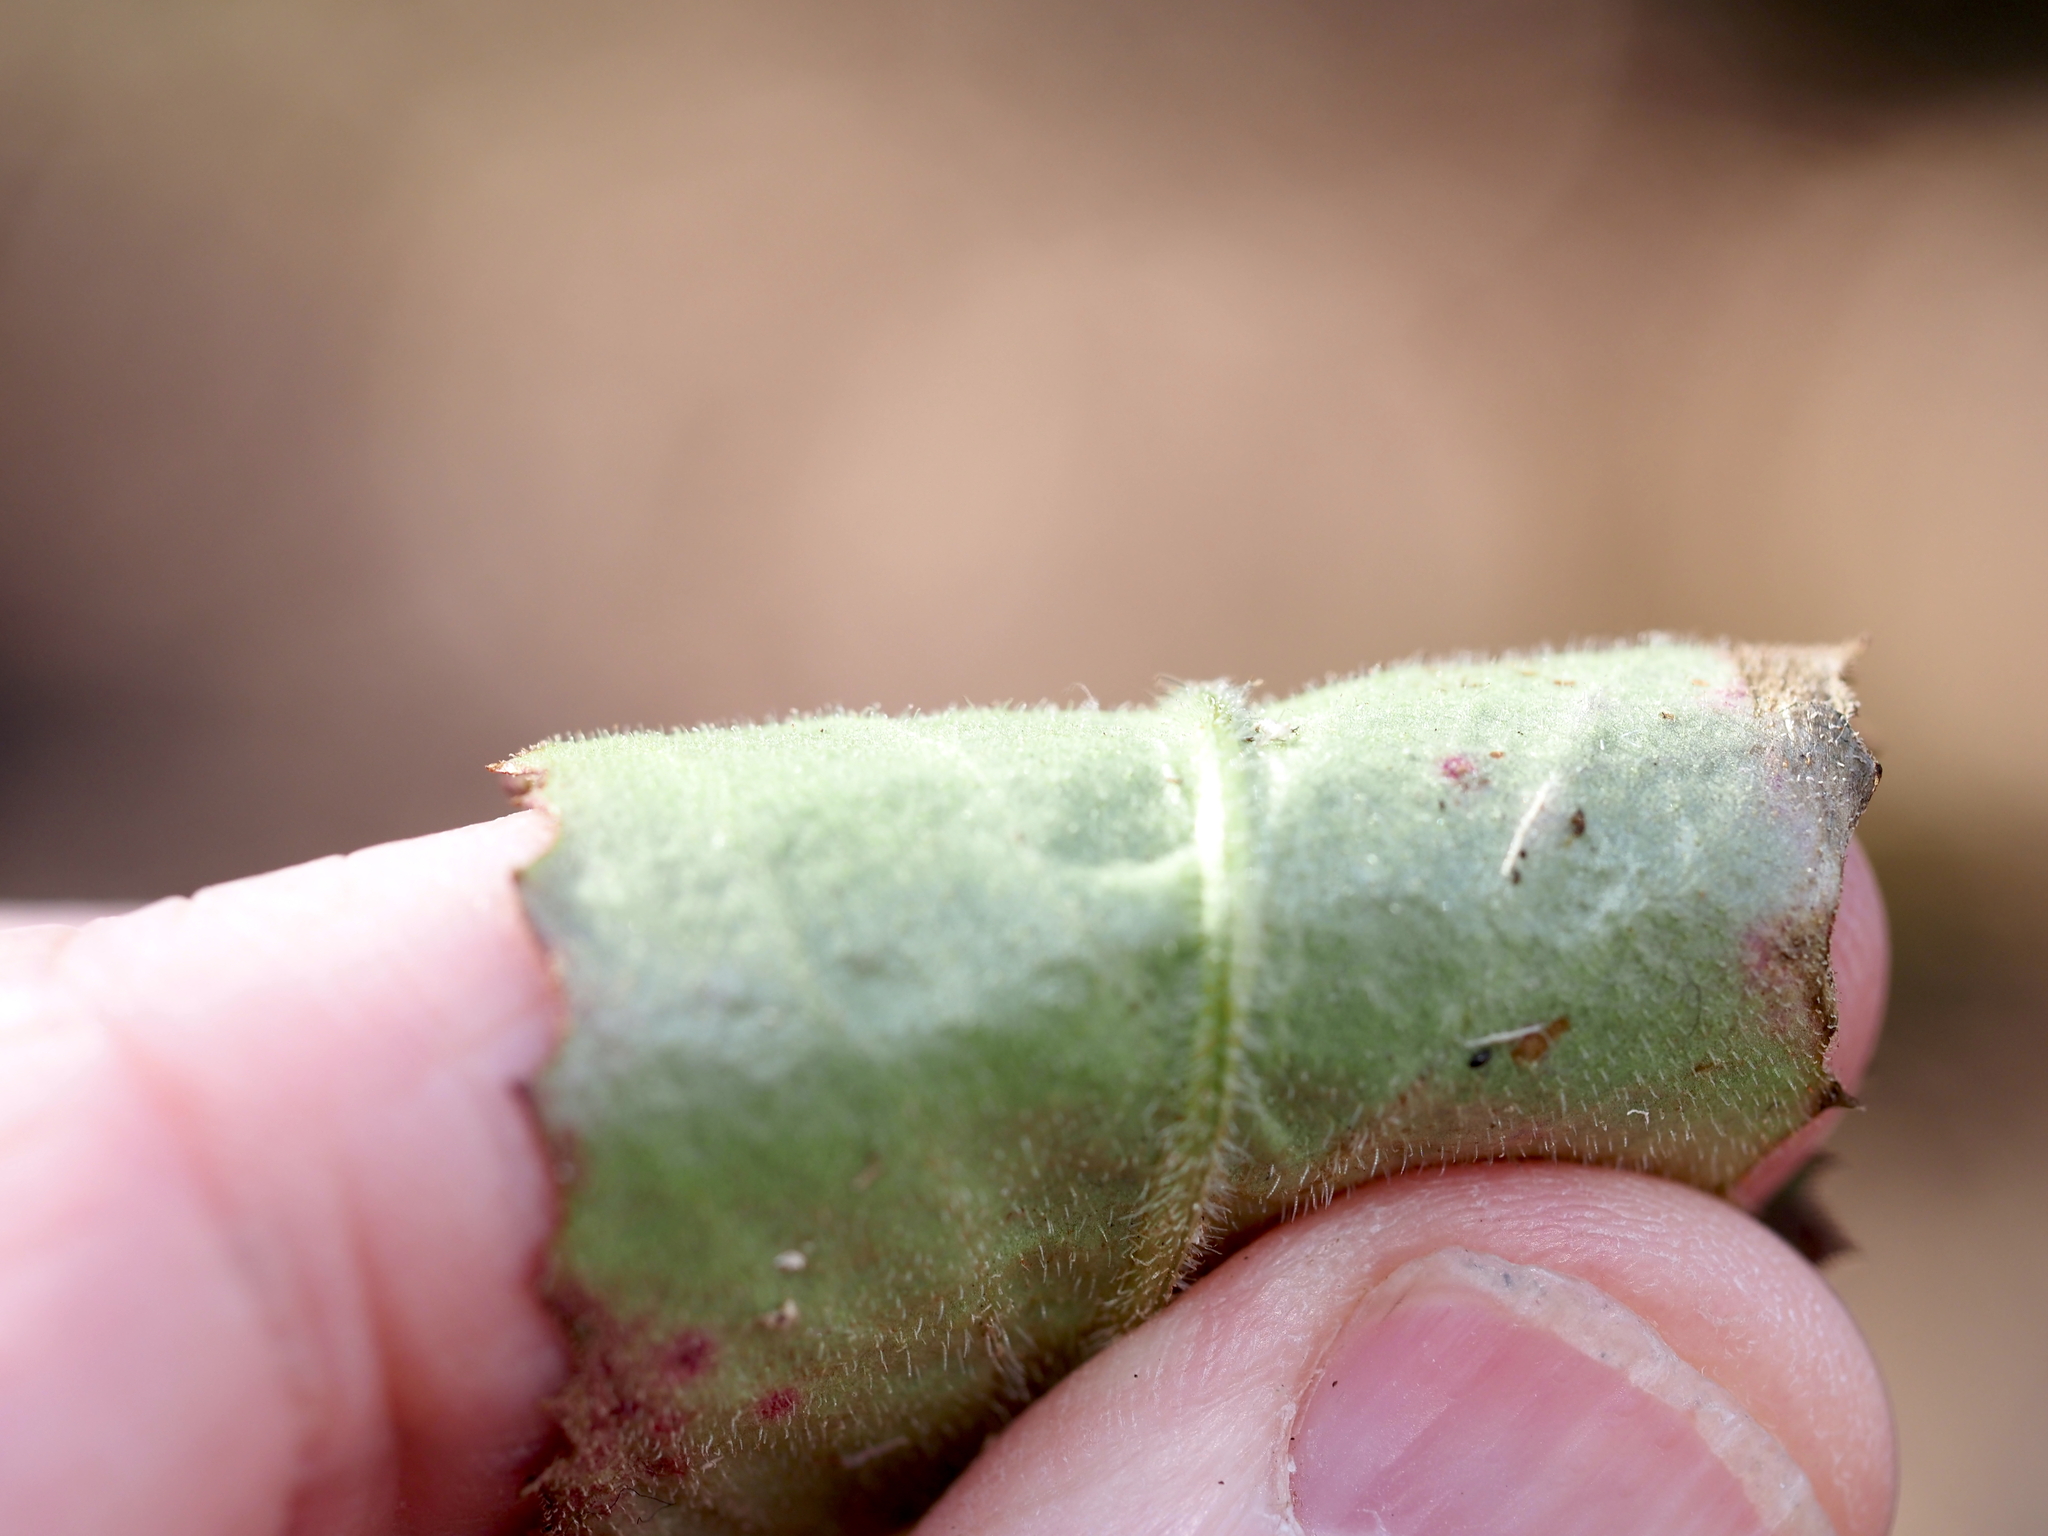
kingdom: Plantae
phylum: Tracheophyta
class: Magnoliopsida
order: Saxifragales
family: Saxifragaceae
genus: Micranthes
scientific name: Micranthes micranthidifolia
